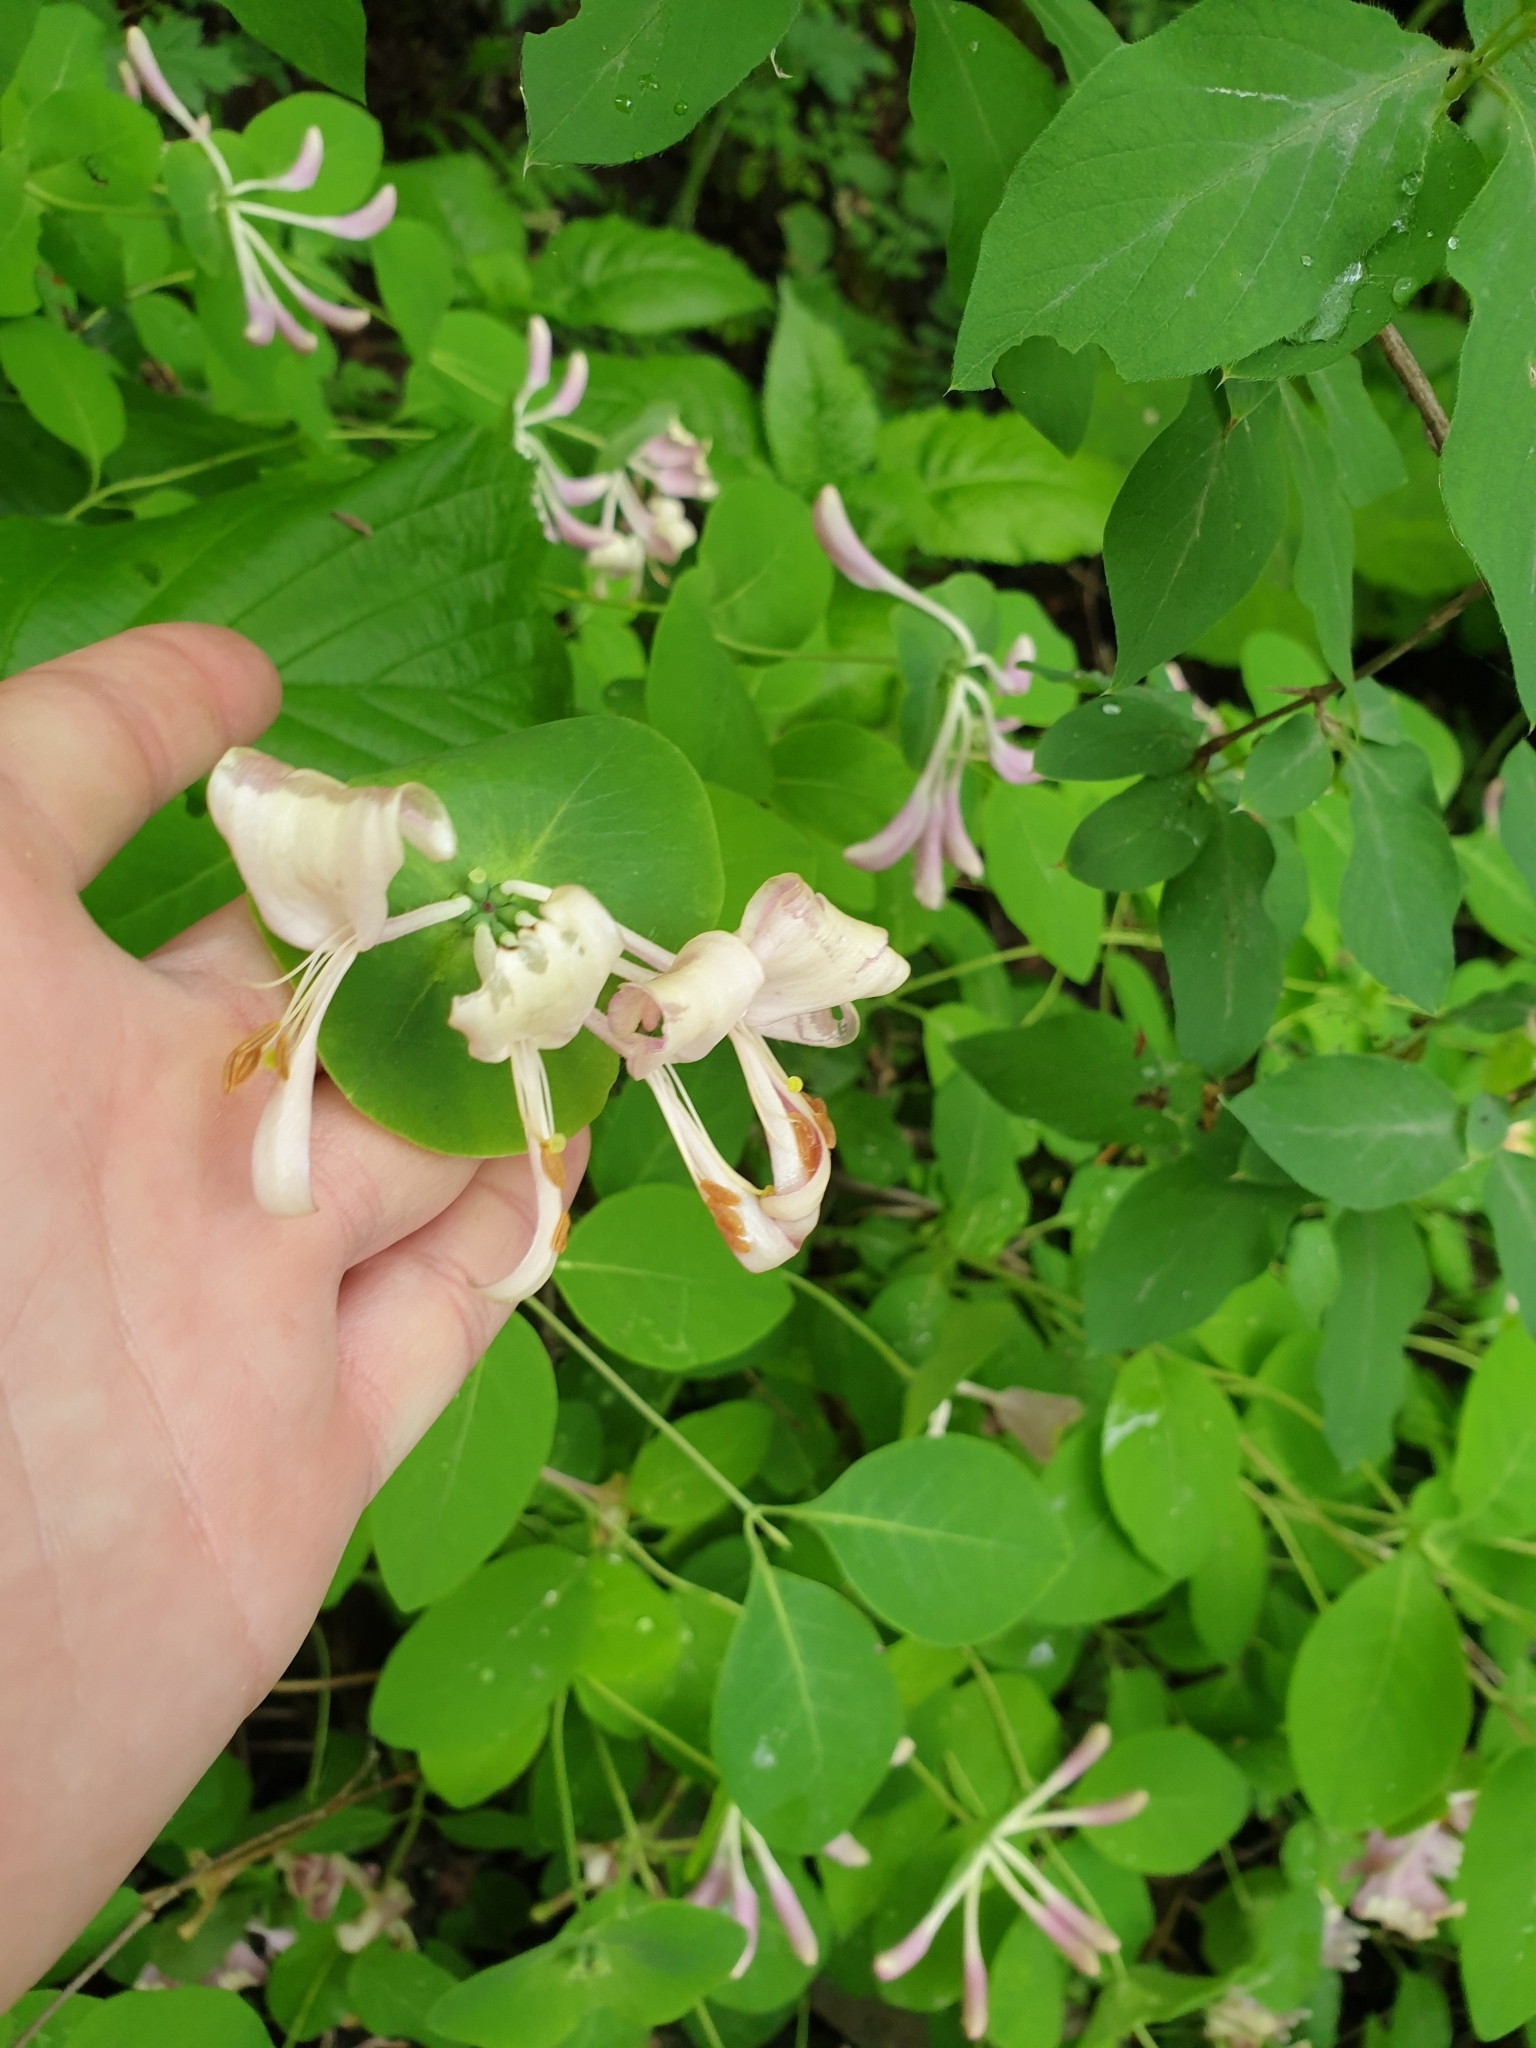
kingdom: Plantae
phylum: Tracheophyta
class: Magnoliopsida
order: Dipsacales
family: Caprifoliaceae
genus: Lonicera
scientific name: Lonicera caprifolium
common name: Perfoliate honeysuckle
